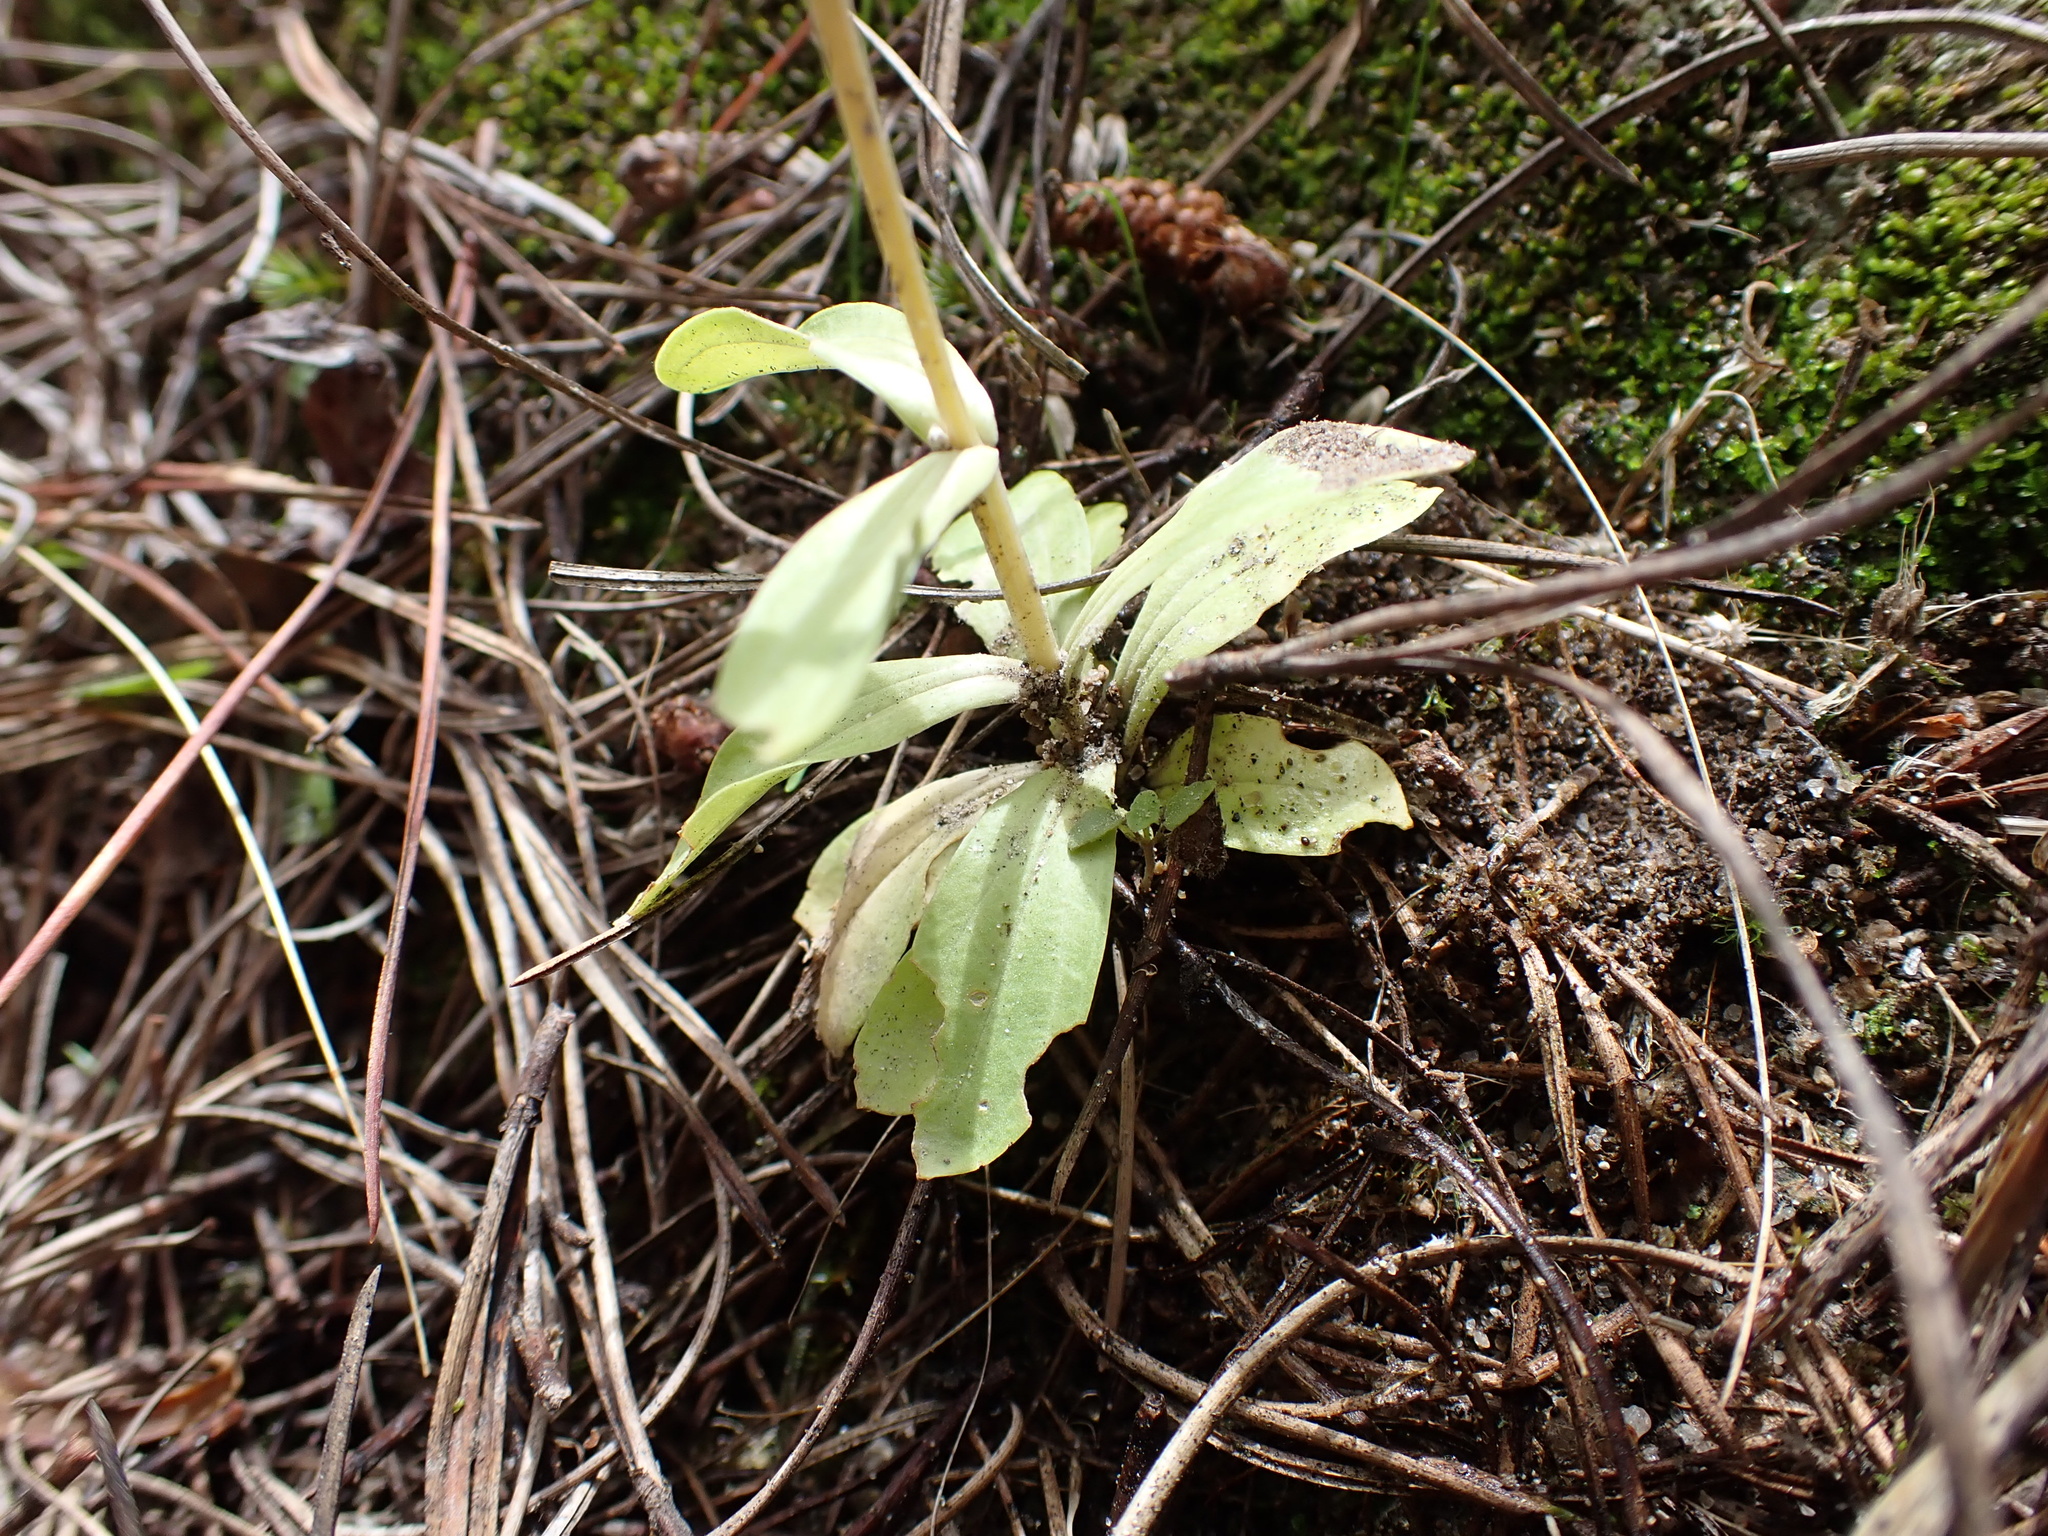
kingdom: Plantae
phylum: Tracheophyta
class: Magnoliopsida
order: Gentianales
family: Gentianaceae
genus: Centaurium
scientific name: Centaurium erythraea
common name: Common centaury
